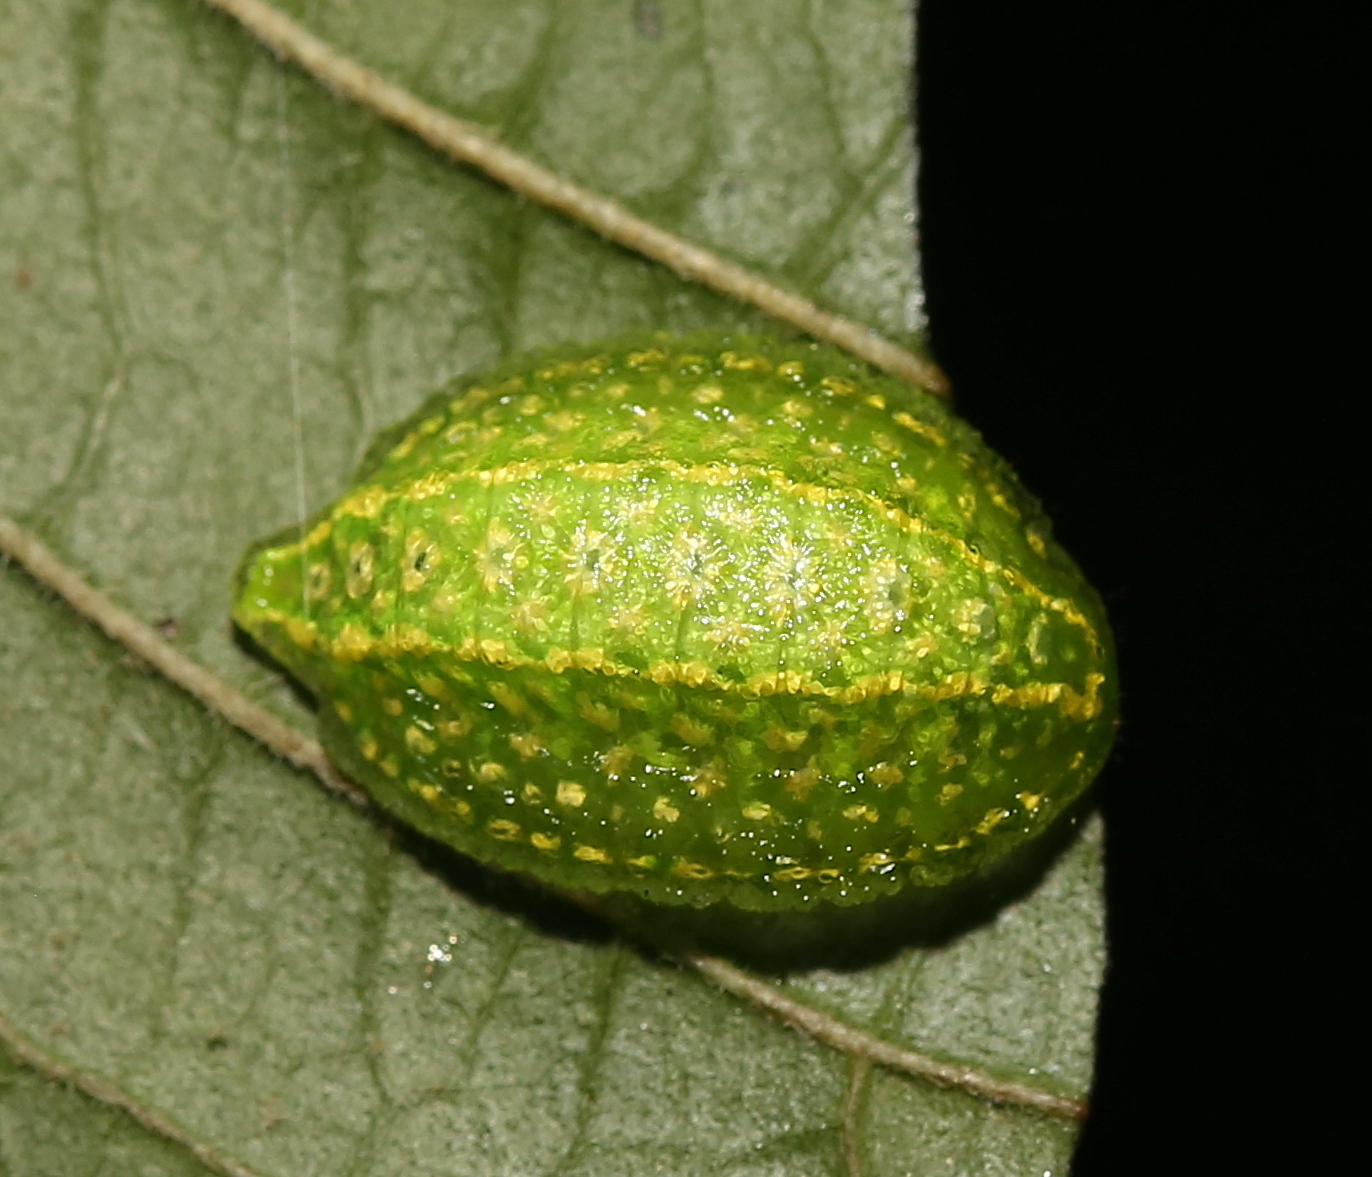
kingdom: Animalia
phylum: Arthropoda
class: Insecta
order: Lepidoptera
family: Limacodidae
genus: Lithacodes
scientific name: Lithacodes fasciola
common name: Yellow-shouldered slug moth
